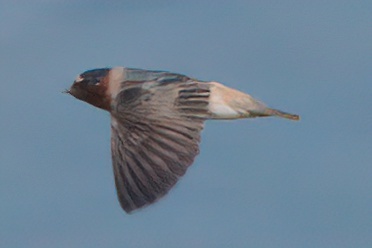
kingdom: Animalia
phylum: Chordata
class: Aves
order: Passeriformes
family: Hirundinidae
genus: Petrochelidon
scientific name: Petrochelidon pyrrhonota
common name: American cliff swallow
